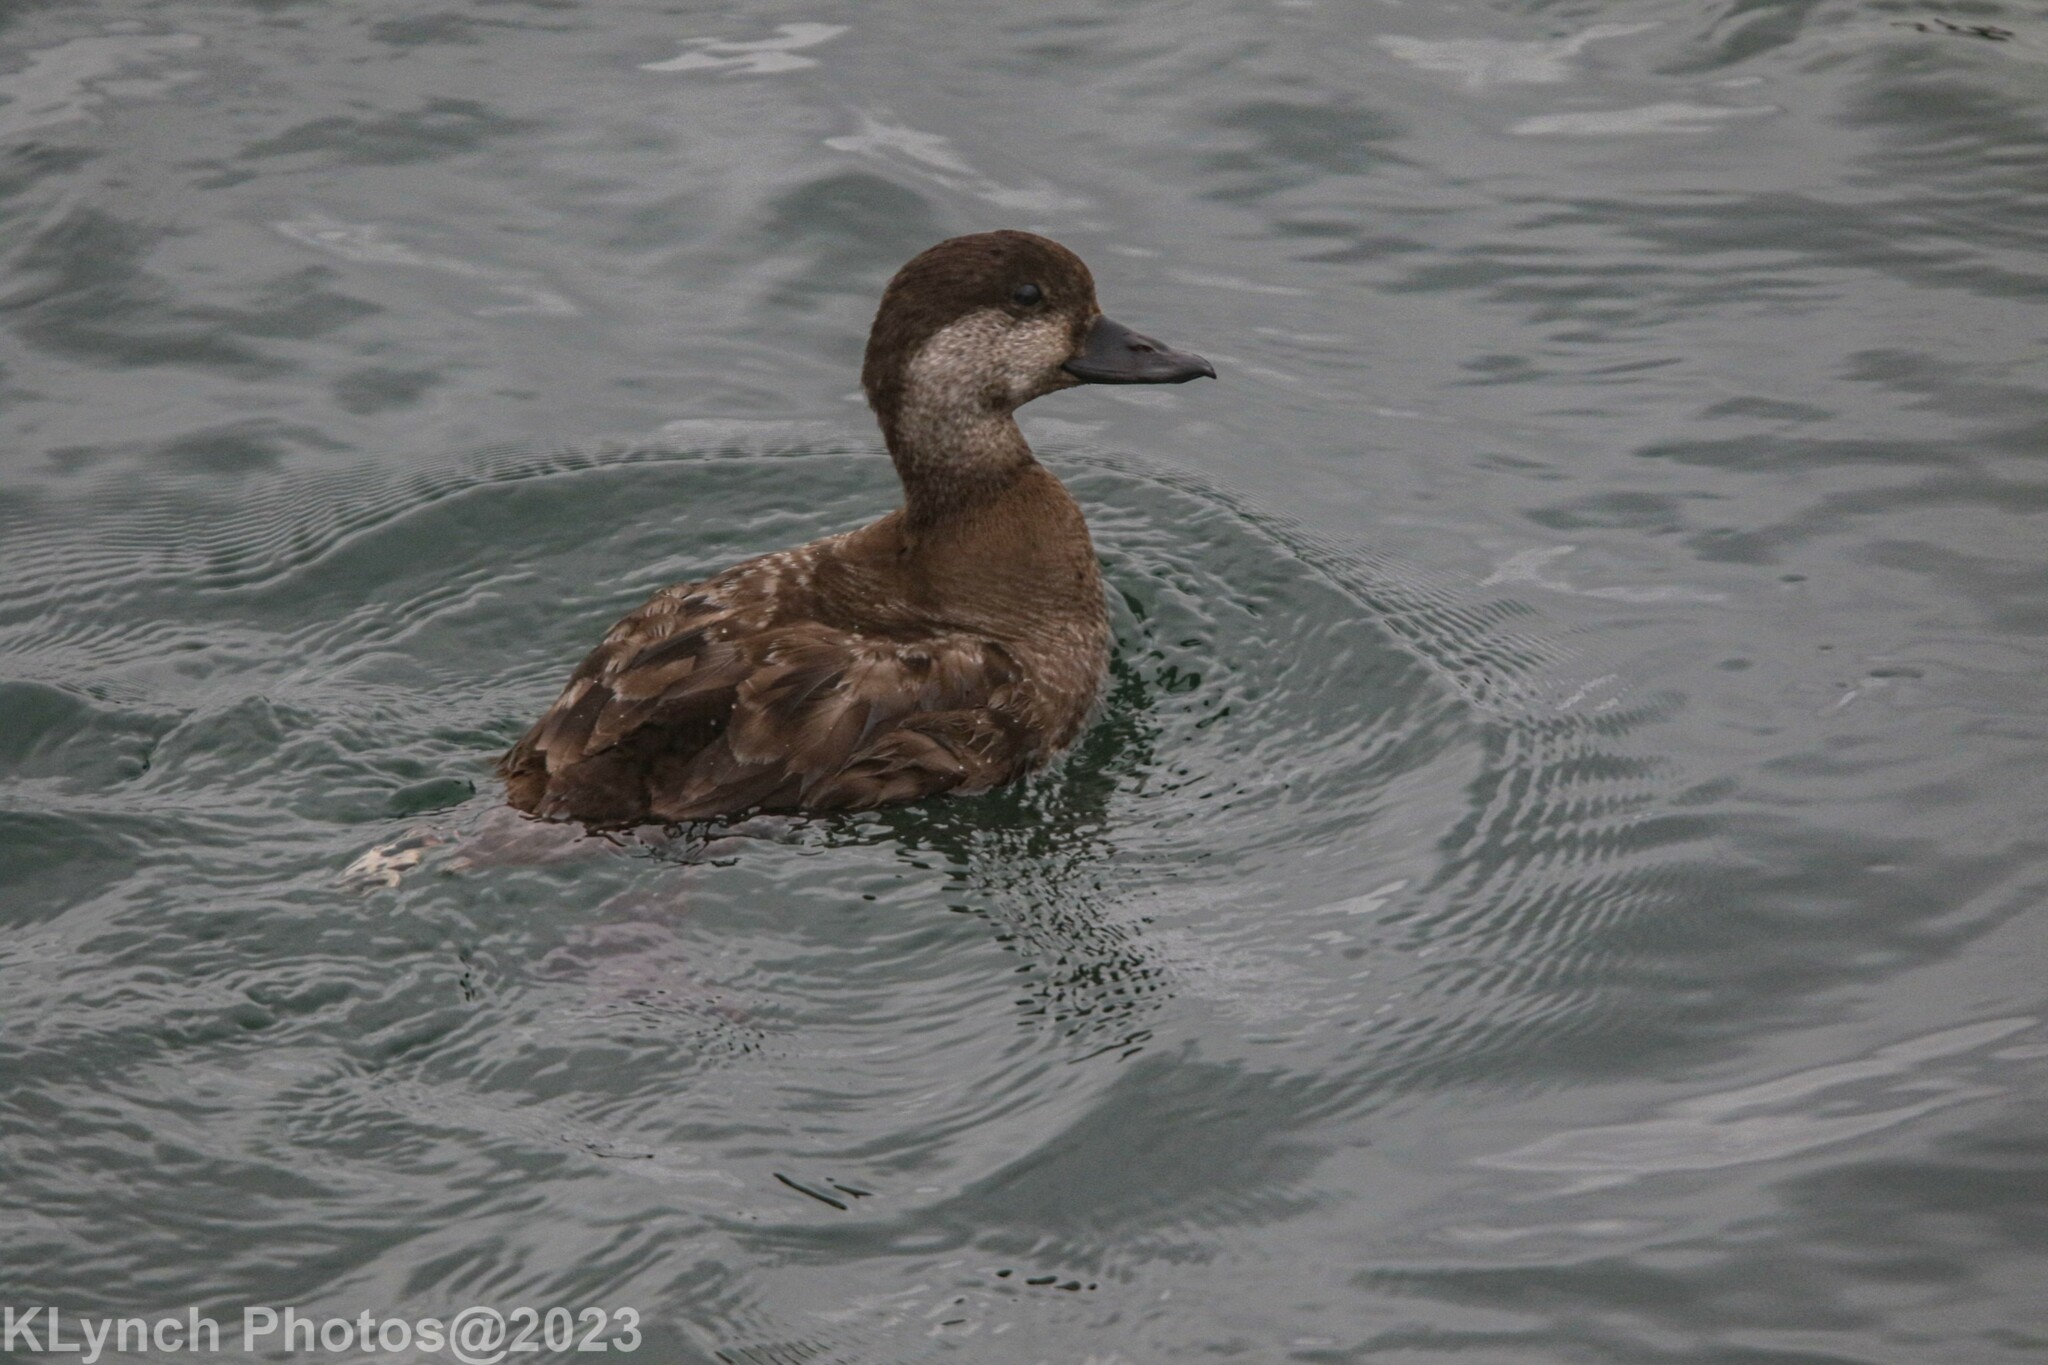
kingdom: Animalia
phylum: Chordata
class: Aves
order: Anseriformes
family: Anatidae
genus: Melanitta
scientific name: Melanitta americana
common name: Black scoter
